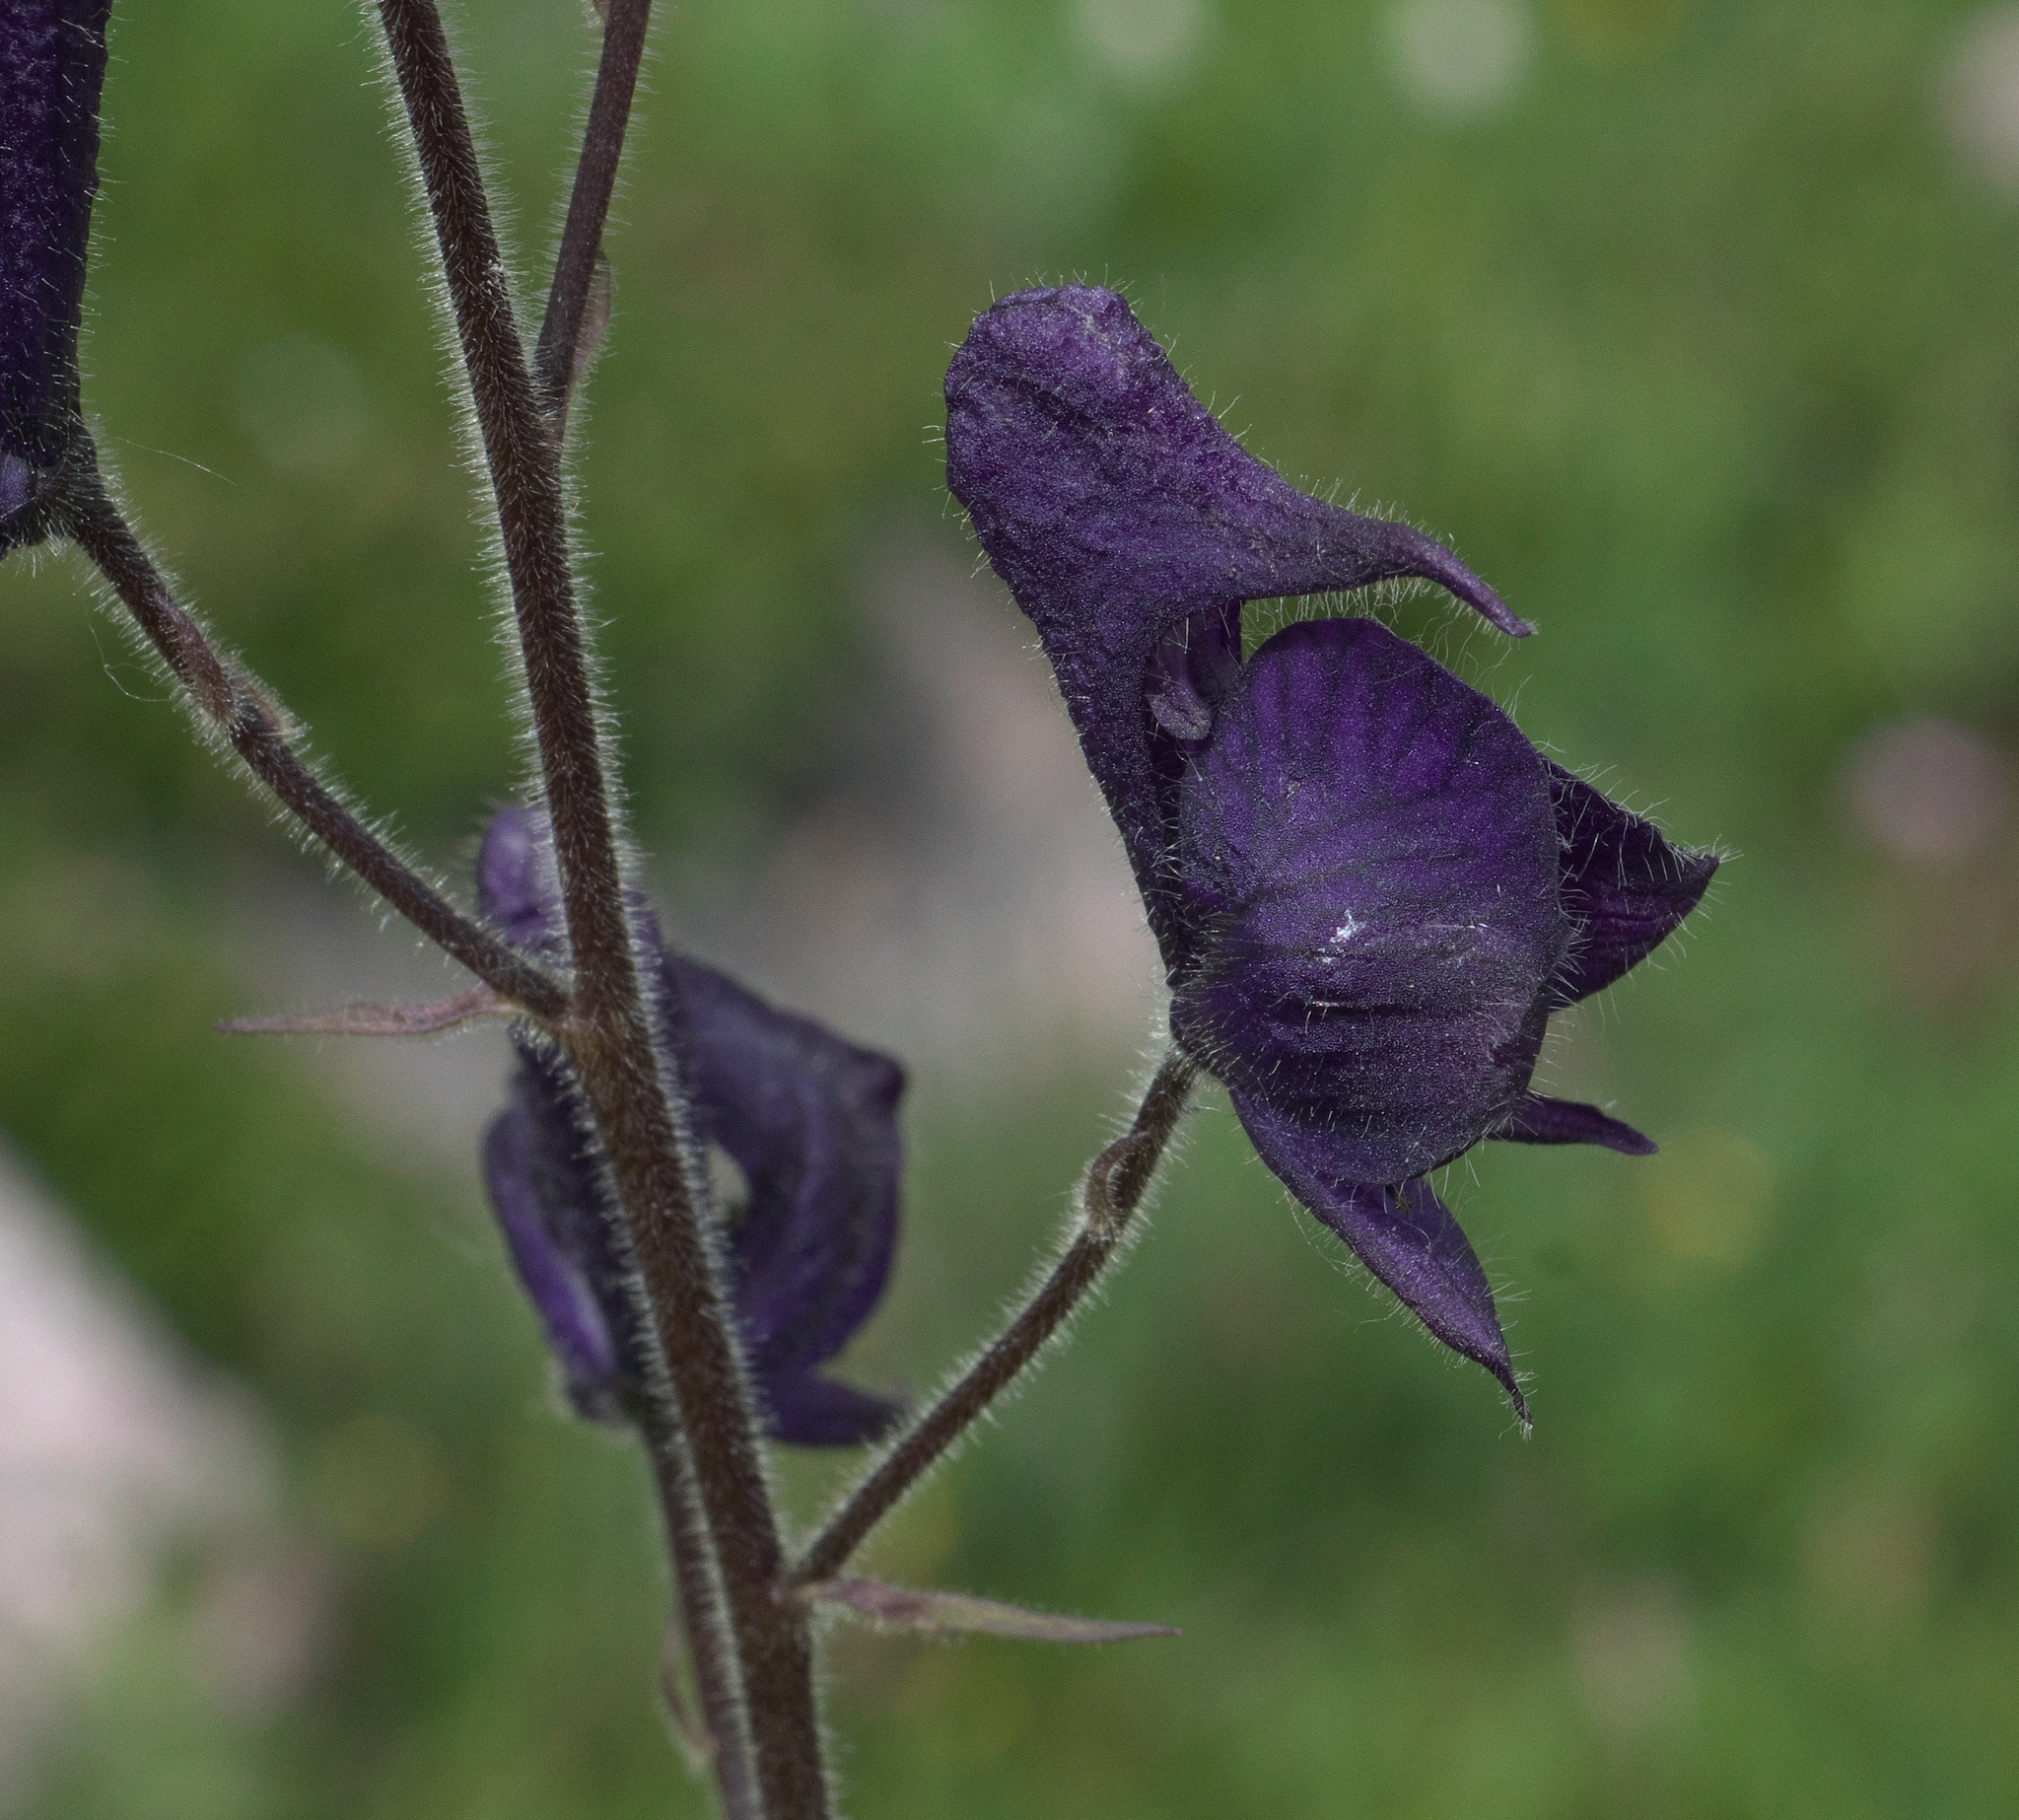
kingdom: Plantae
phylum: Tracheophyta
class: Magnoliopsida
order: Ranunculales
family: Ranunculaceae
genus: Aconitum
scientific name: Aconitum columbianum
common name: Columbia aconite
